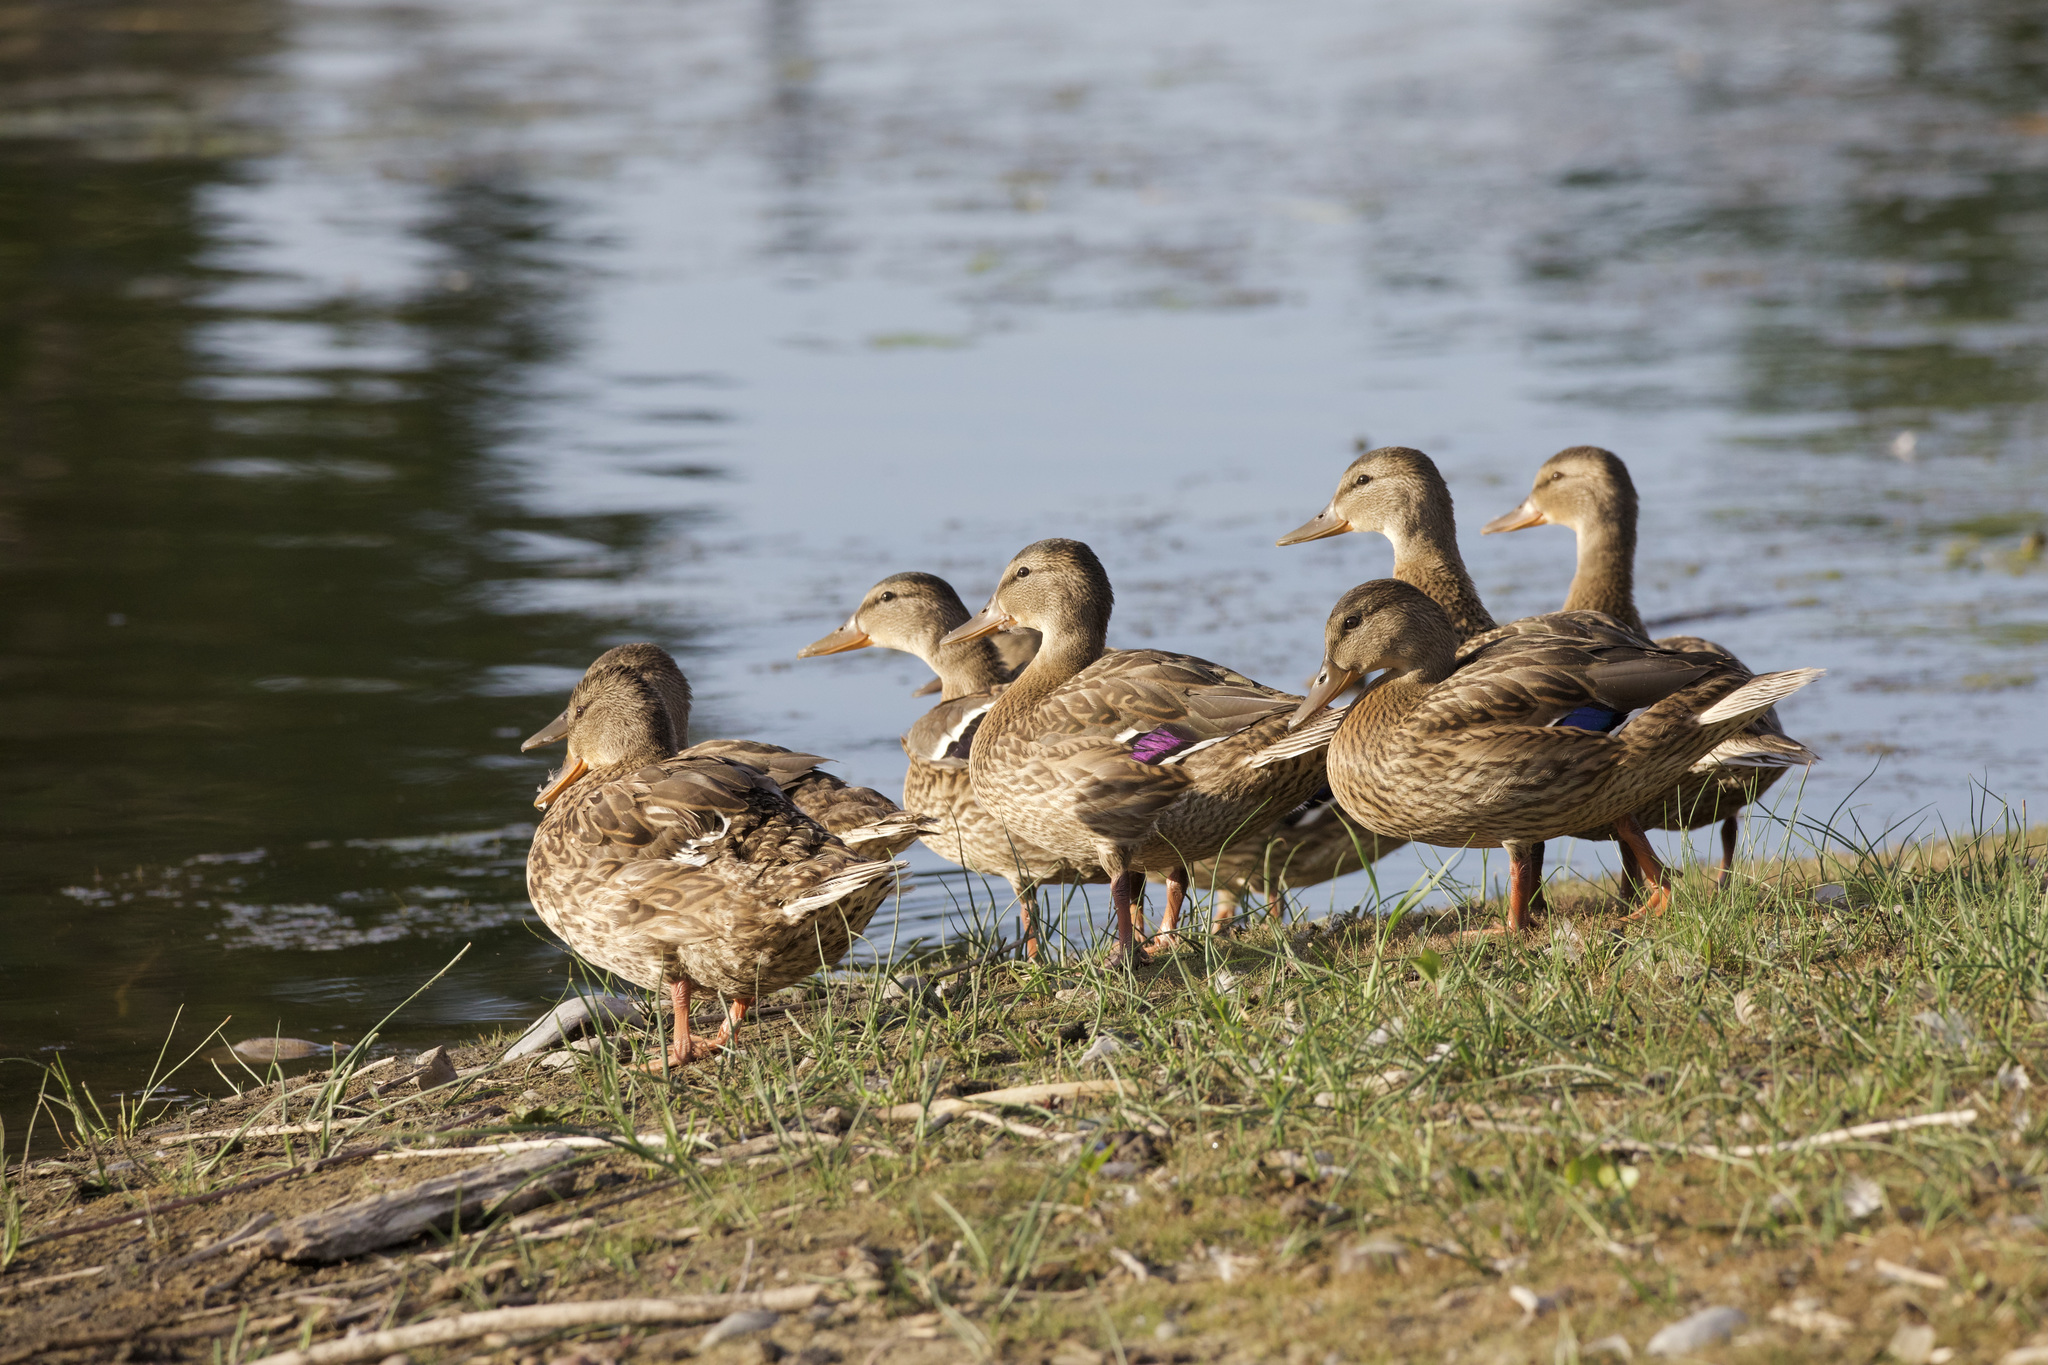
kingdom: Animalia
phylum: Chordata
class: Aves
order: Anseriformes
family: Anatidae
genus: Anas
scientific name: Anas platyrhynchos
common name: Mallard
